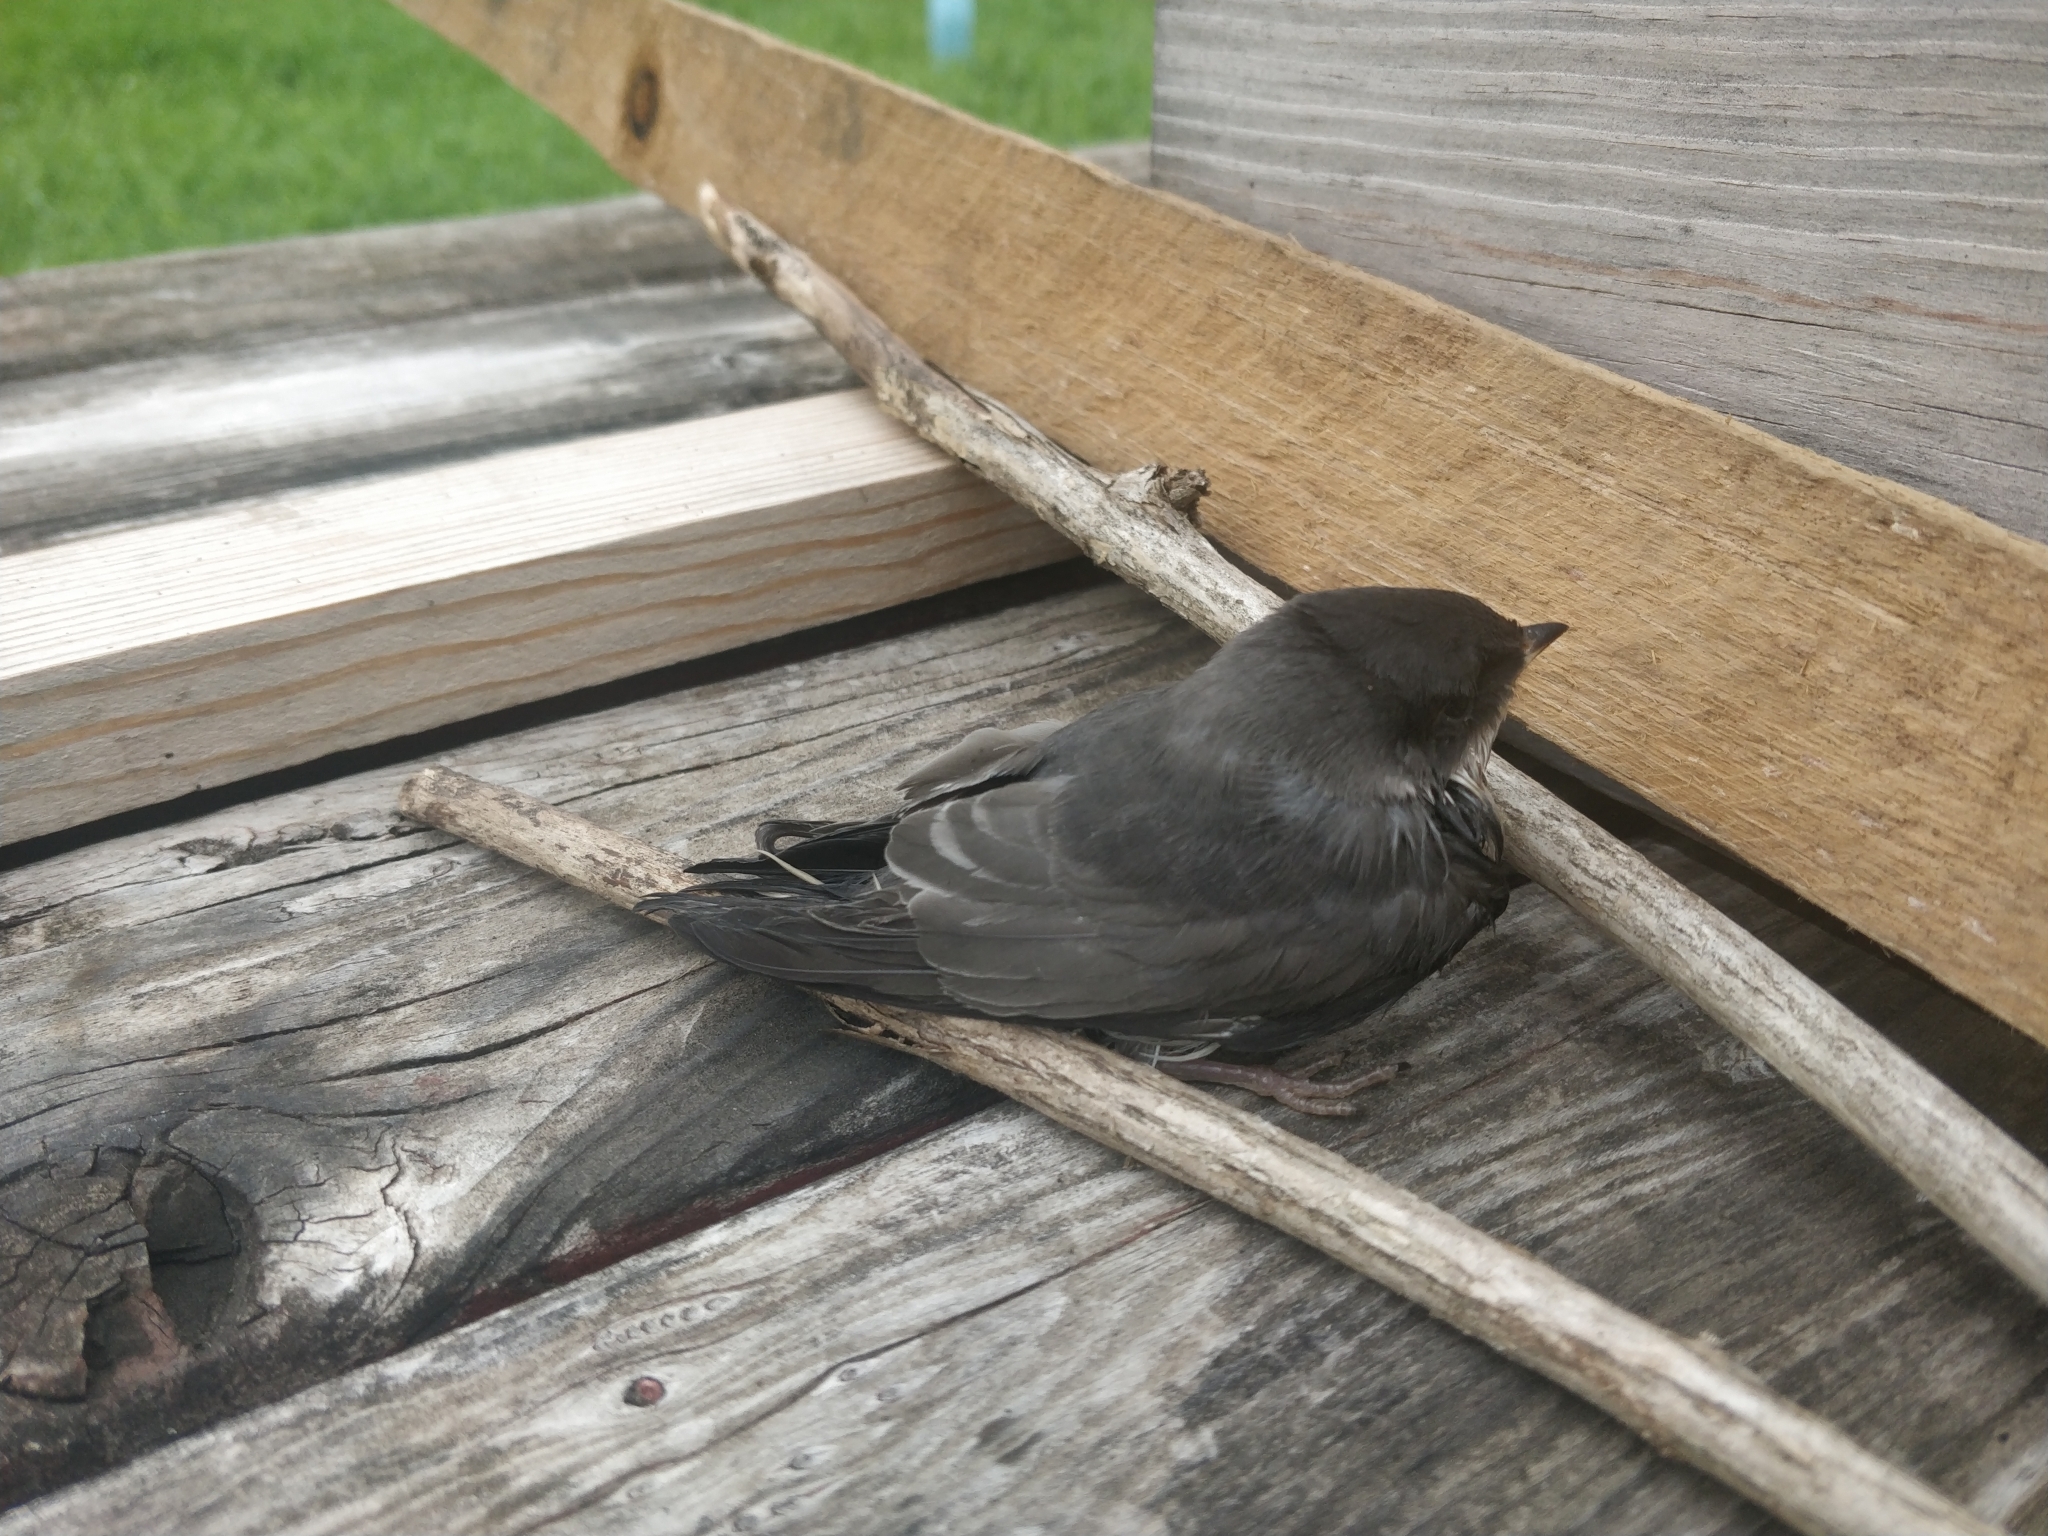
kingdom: Animalia
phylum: Chordata
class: Aves
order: Passeriformes
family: Hirundinidae
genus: Tachycineta
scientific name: Tachycineta bicolor
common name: Tree swallow
